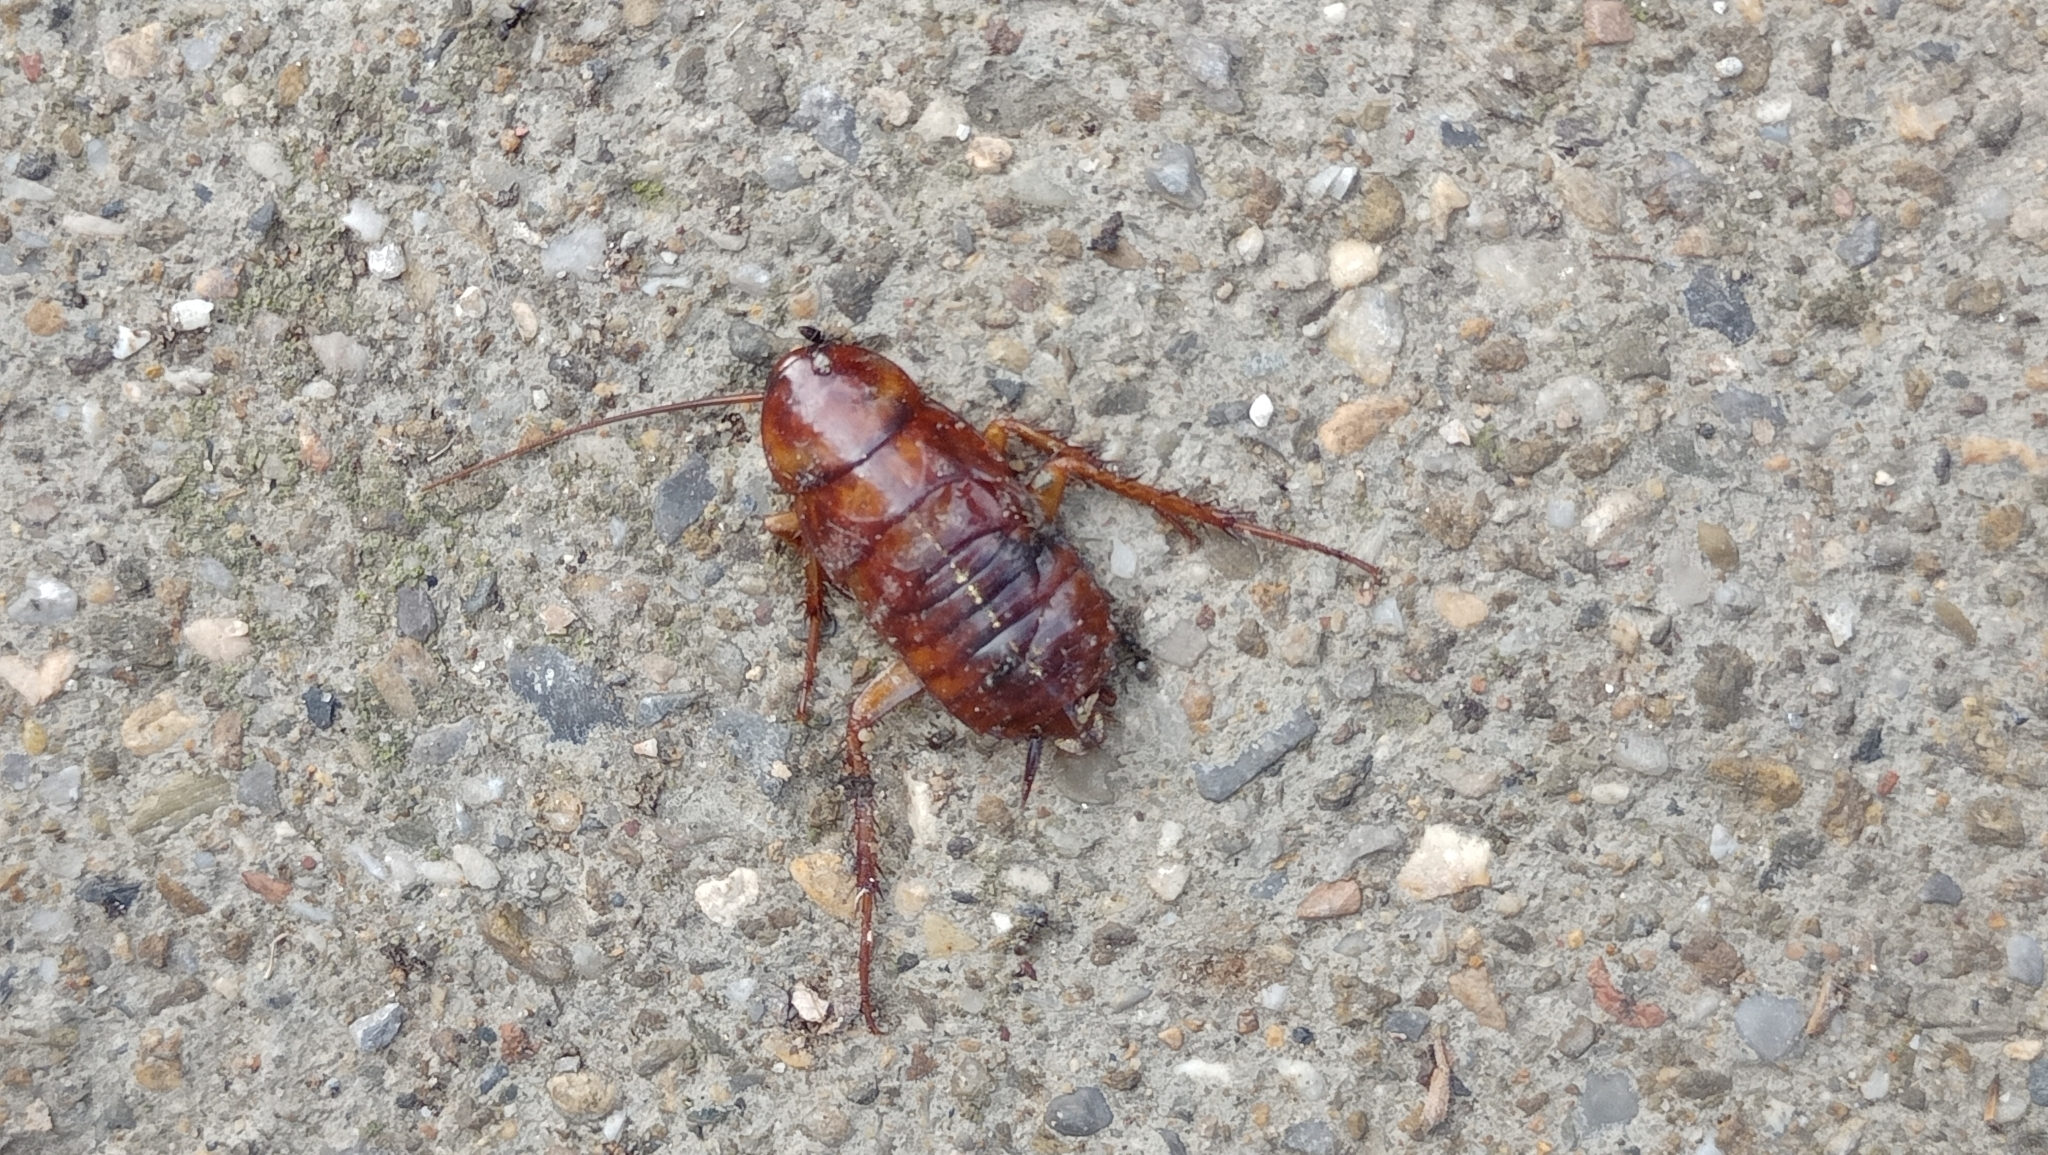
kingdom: Animalia
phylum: Arthropoda
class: Insecta
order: Blattodea
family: Blattidae
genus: Periplaneta
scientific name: Periplaneta americana
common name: American cockroach
